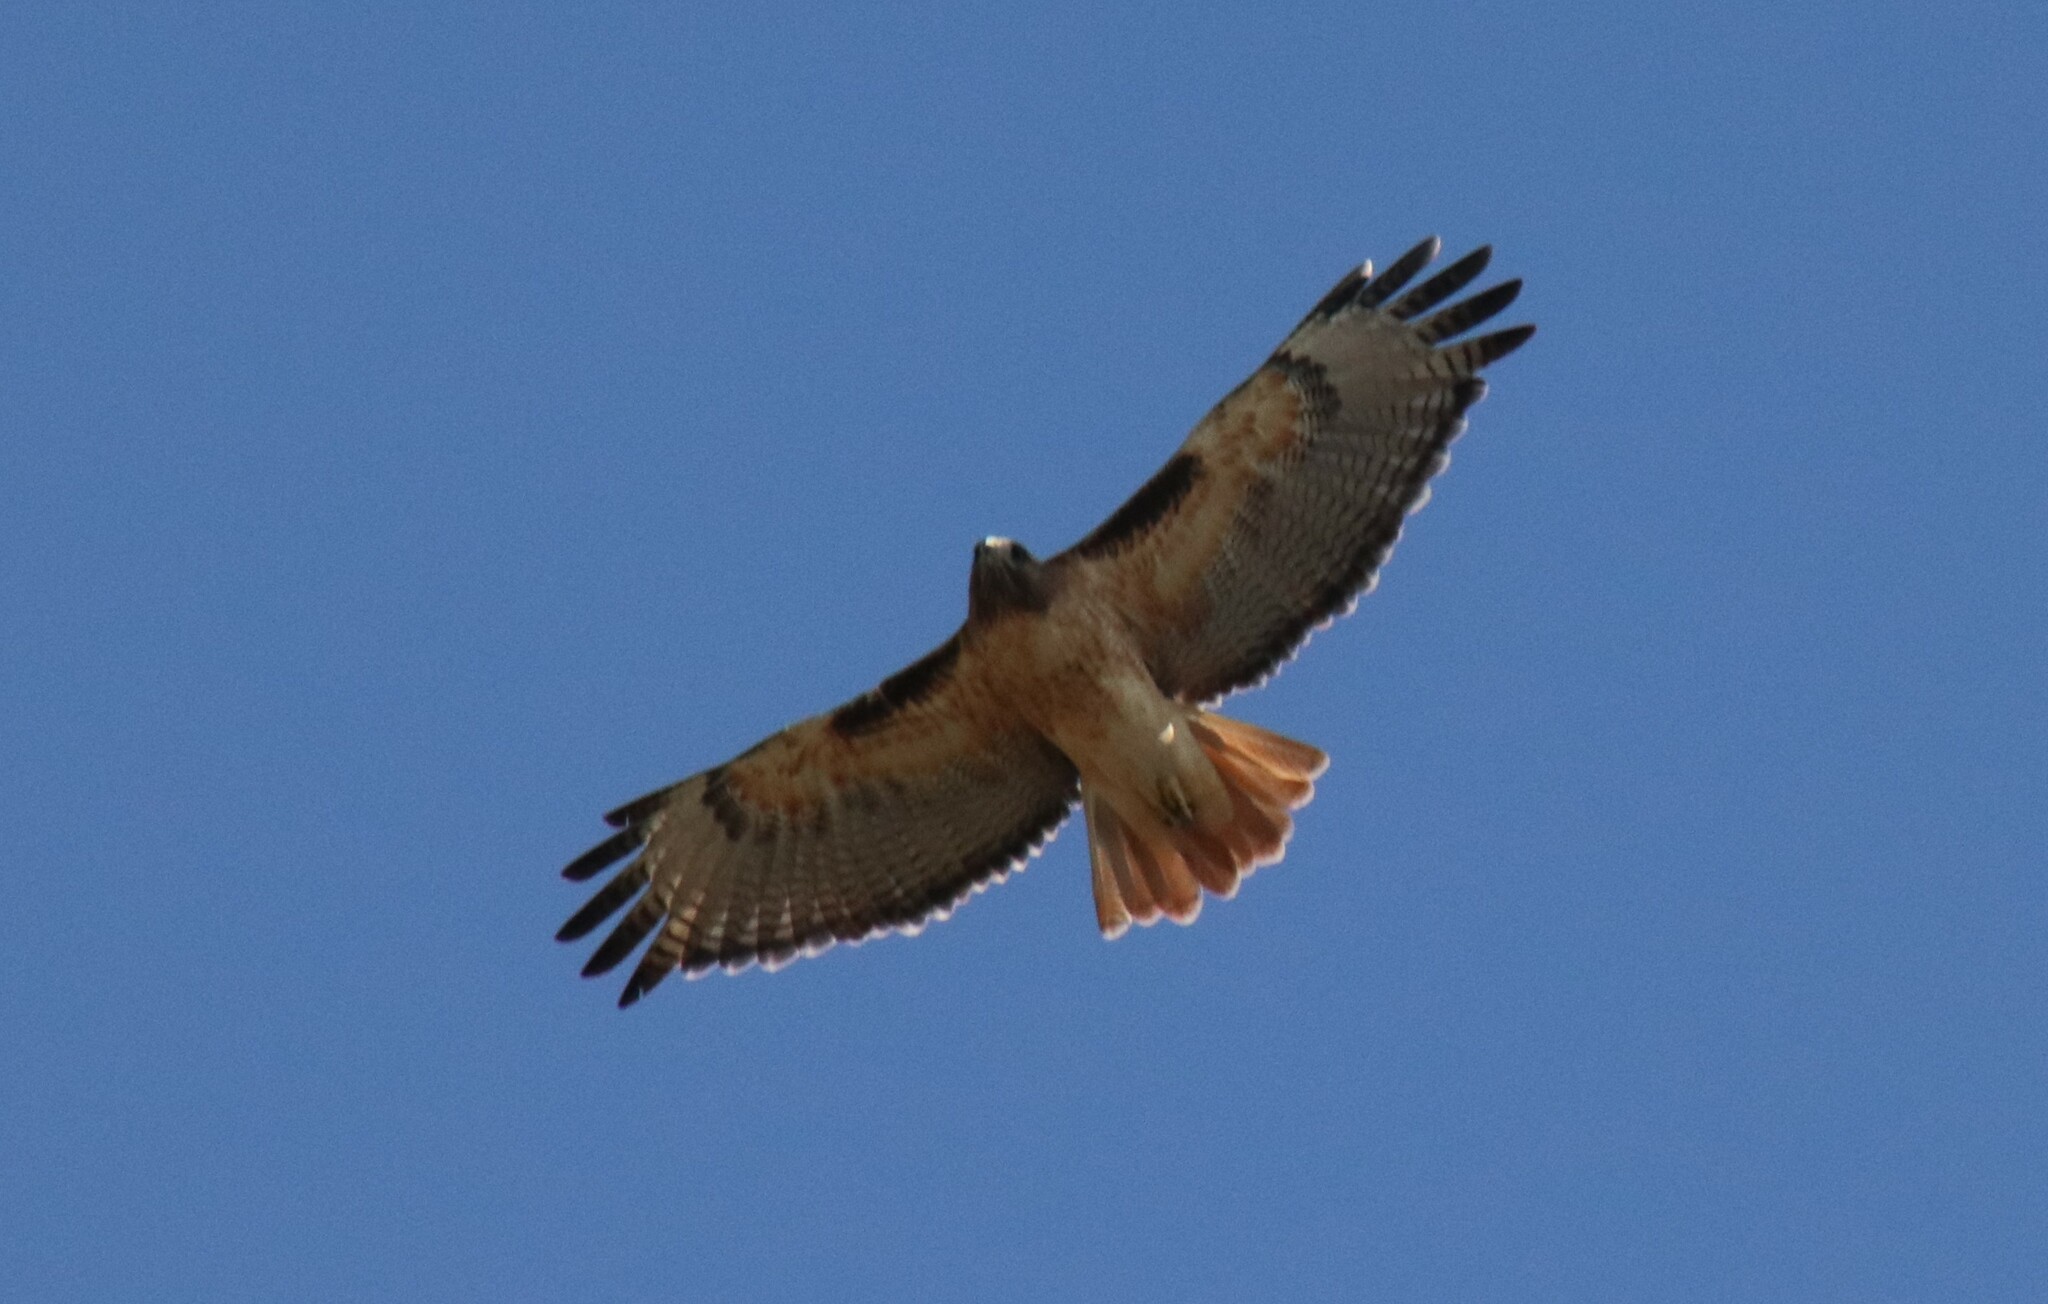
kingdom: Animalia
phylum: Chordata
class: Aves
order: Accipitriformes
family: Accipitridae
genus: Buteo
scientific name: Buteo jamaicensis
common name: Red-tailed hawk
